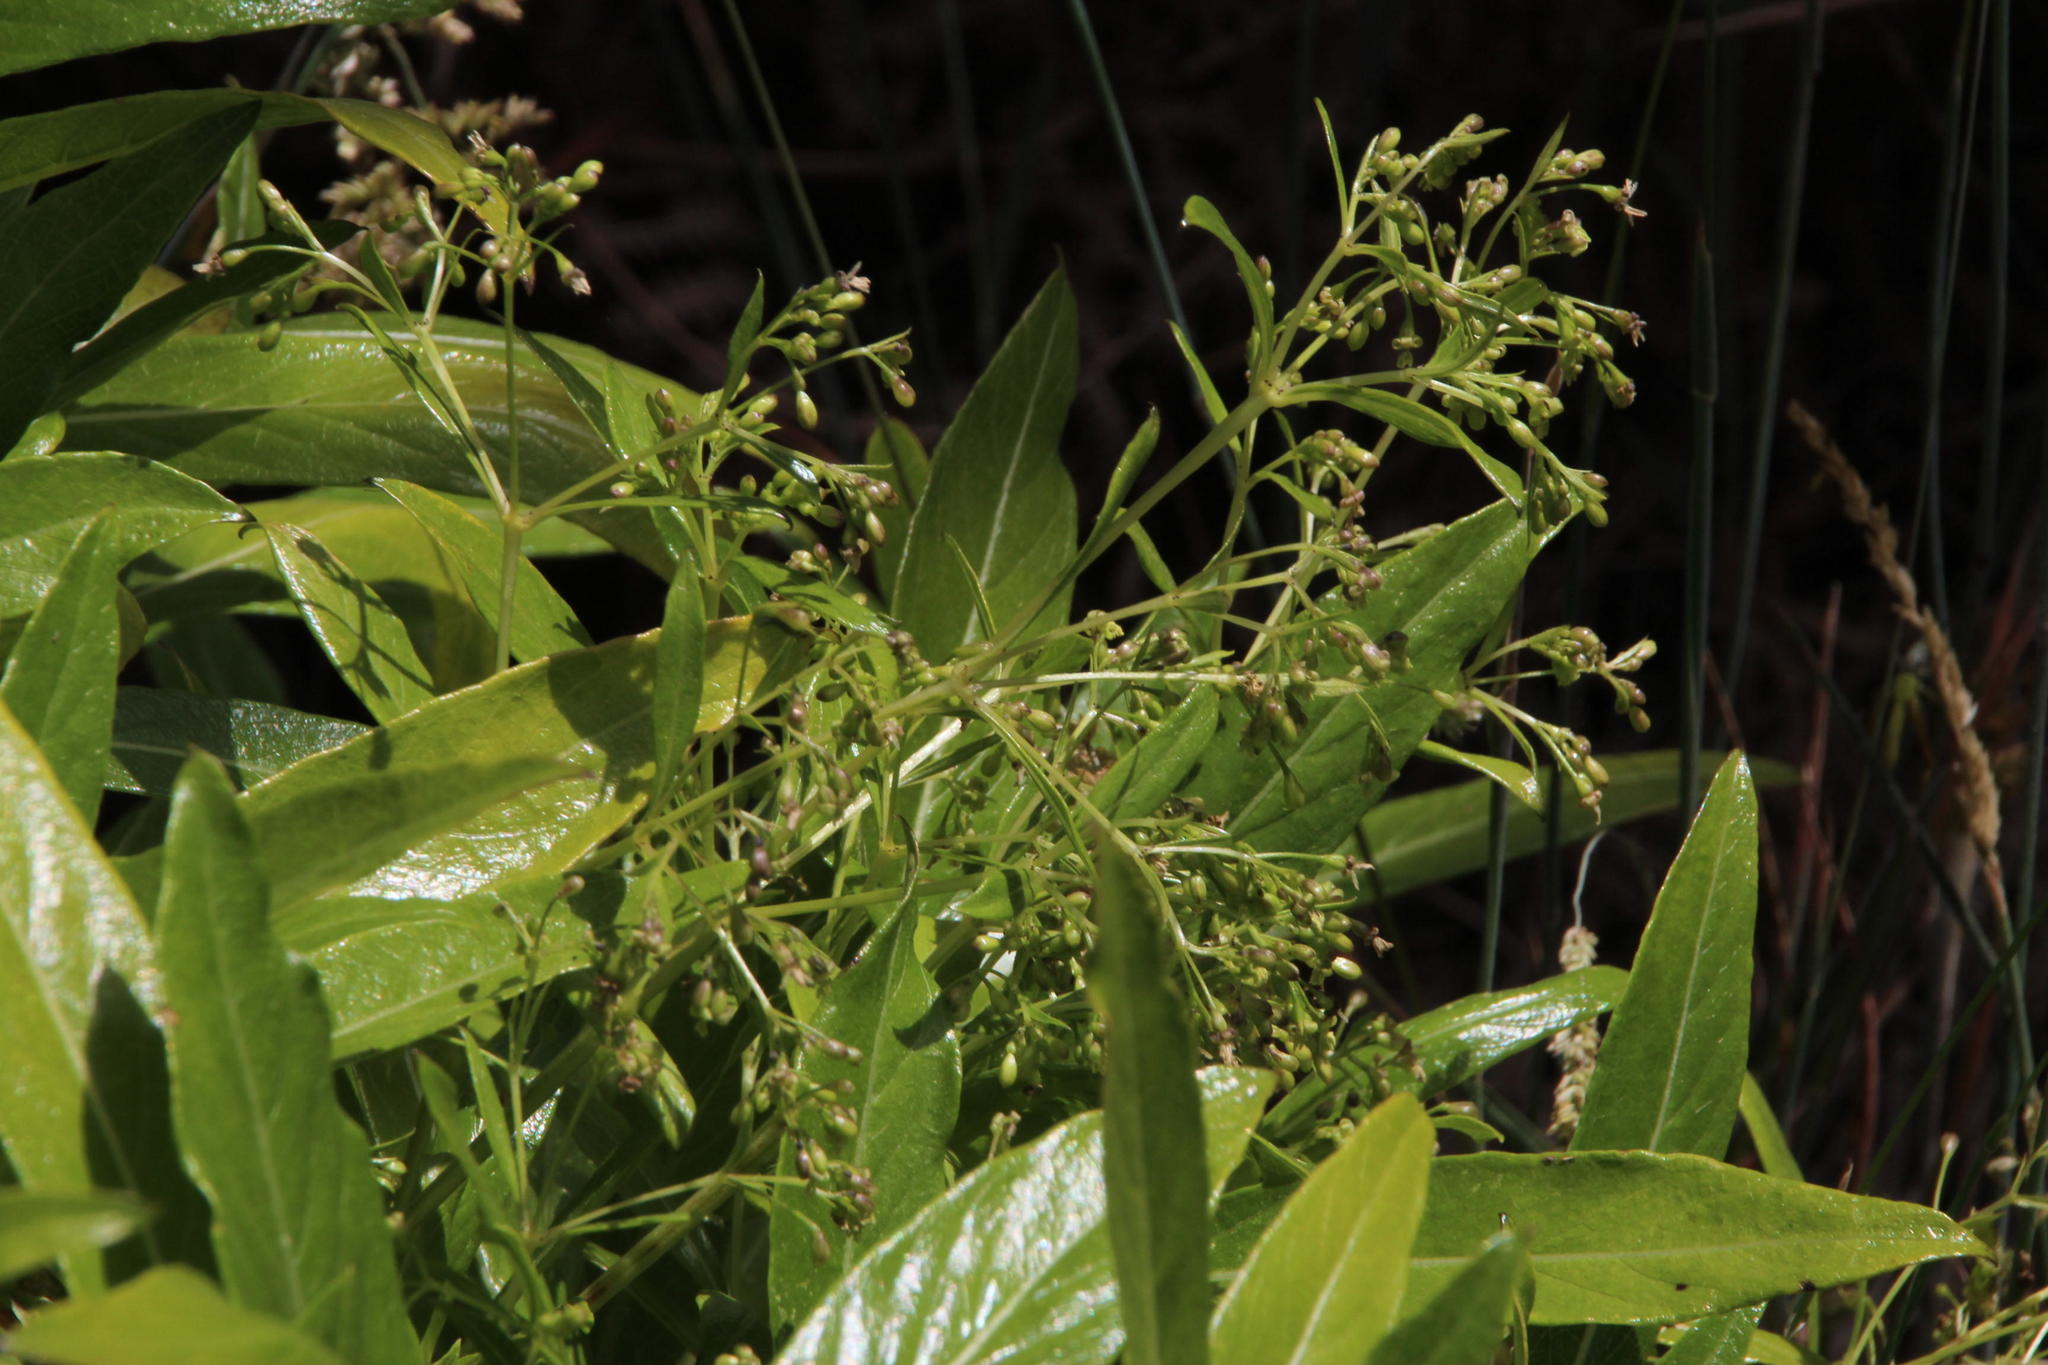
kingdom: Plantae
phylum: Tracheophyta
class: Magnoliopsida
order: Gentianales
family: Rubiaceae
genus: Phyllis
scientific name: Phyllis nobla
